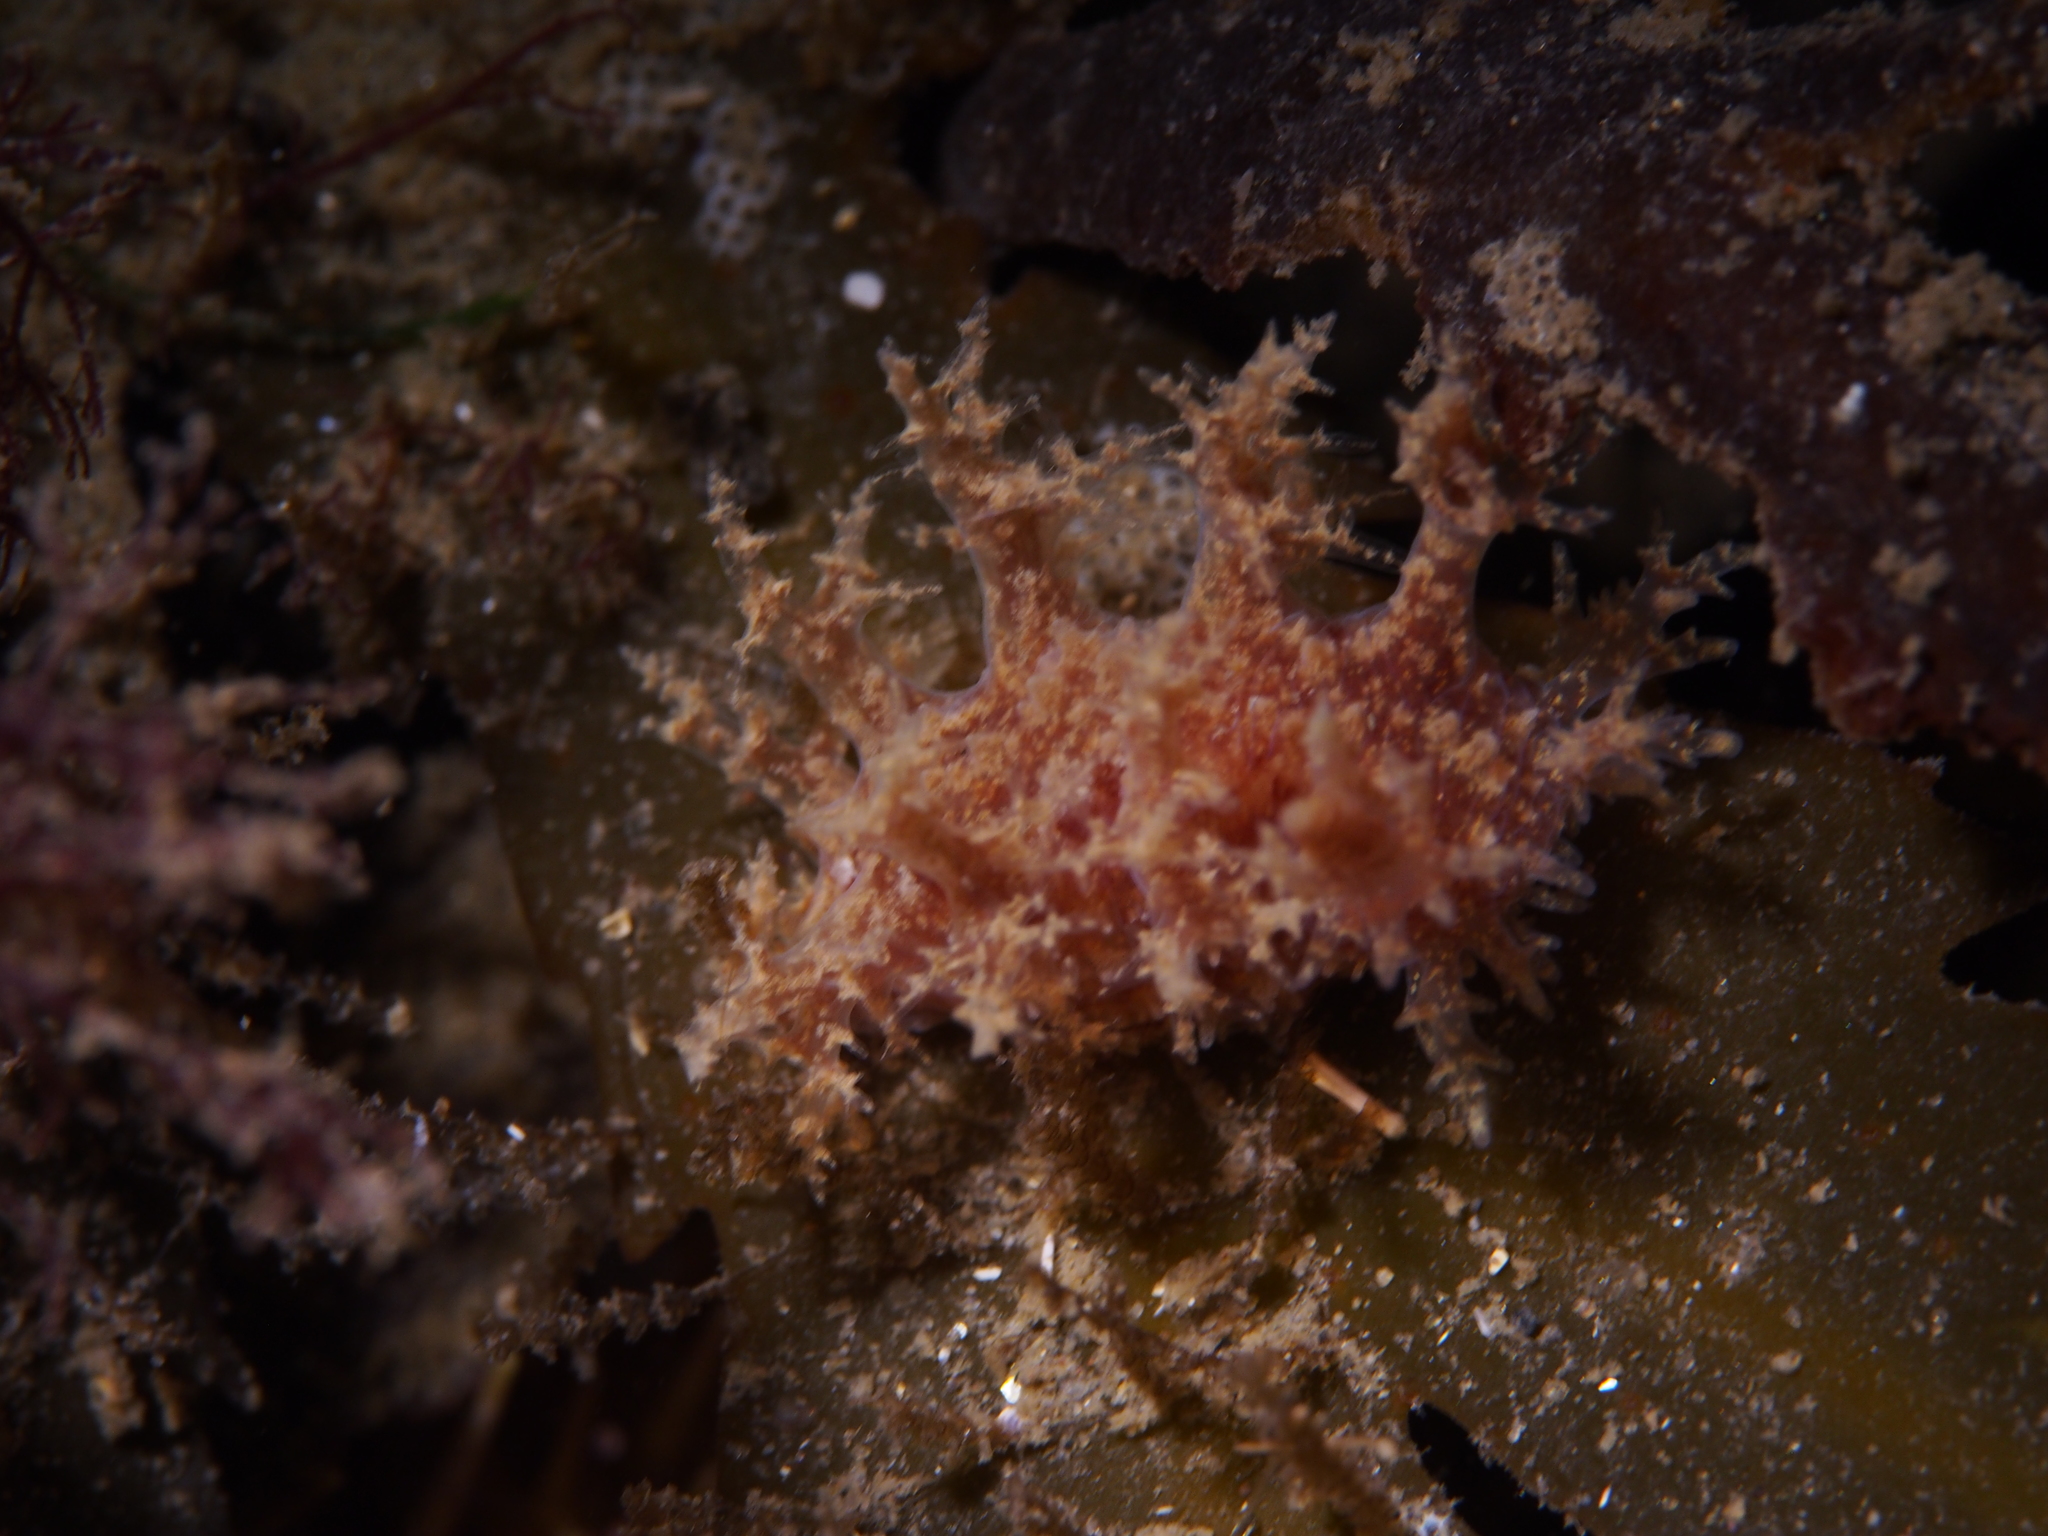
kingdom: Animalia
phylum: Mollusca
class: Gastropoda
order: Nudibranchia
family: Dendronotidae
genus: Dendronotus
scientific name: Dendronotus frondosus
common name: Bushy-backed nudibranch
